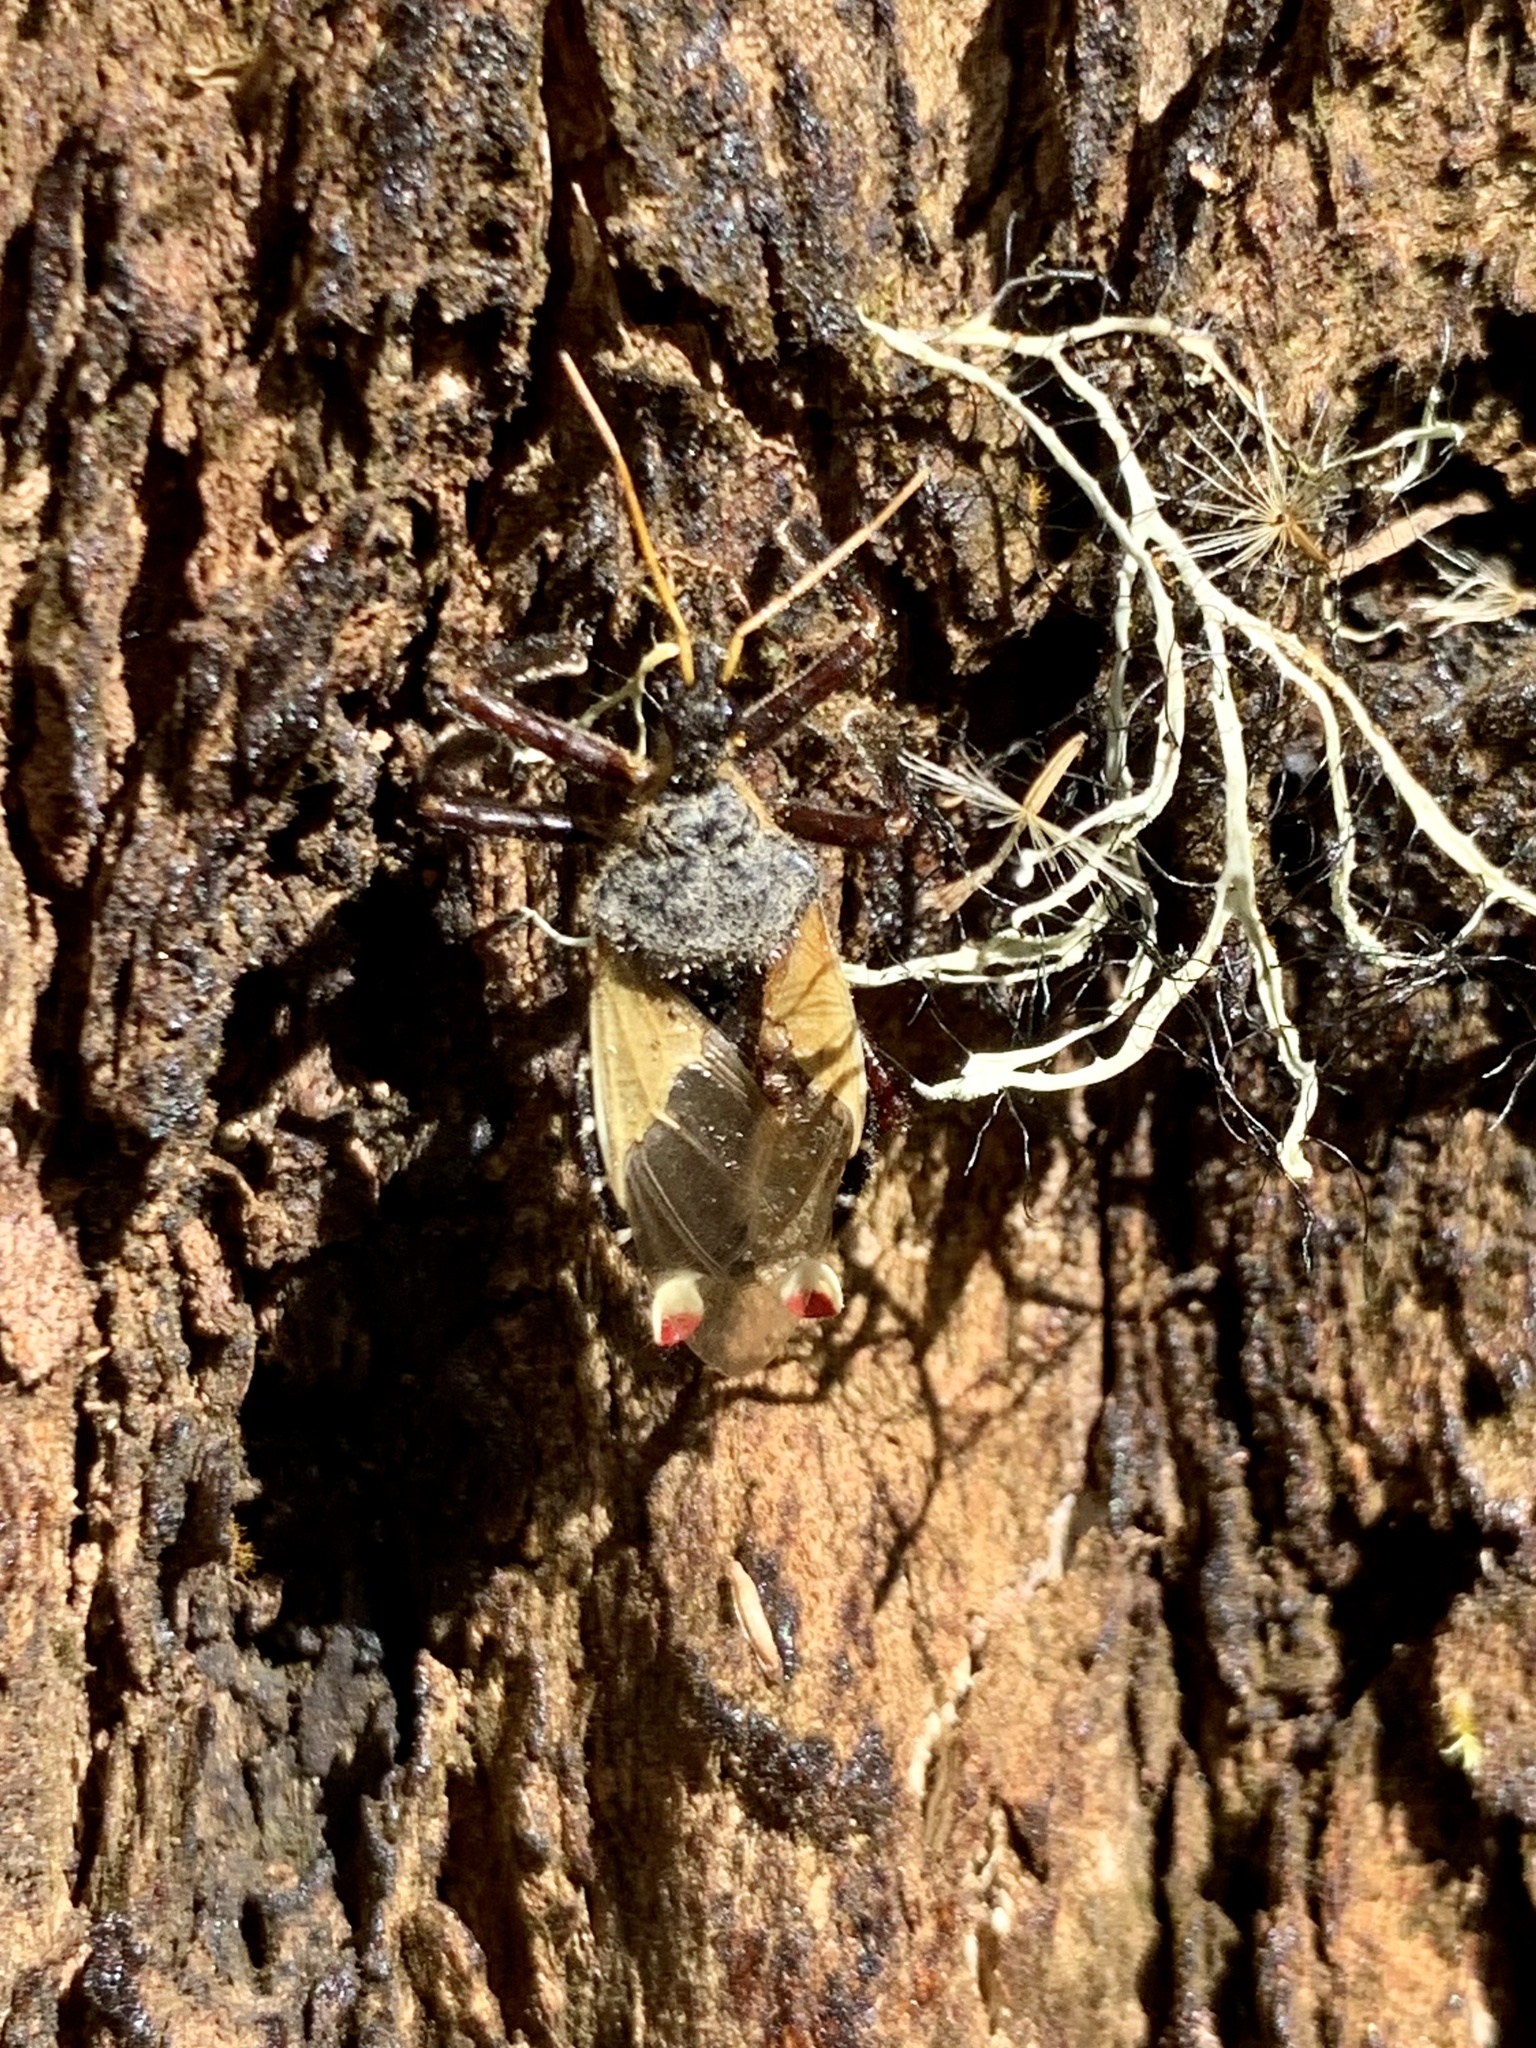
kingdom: Animalia
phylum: Arthropoda
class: Insecta
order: Hemiptera
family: Reduviidae
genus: Apiomerus
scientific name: Apiomerus ochropterus
